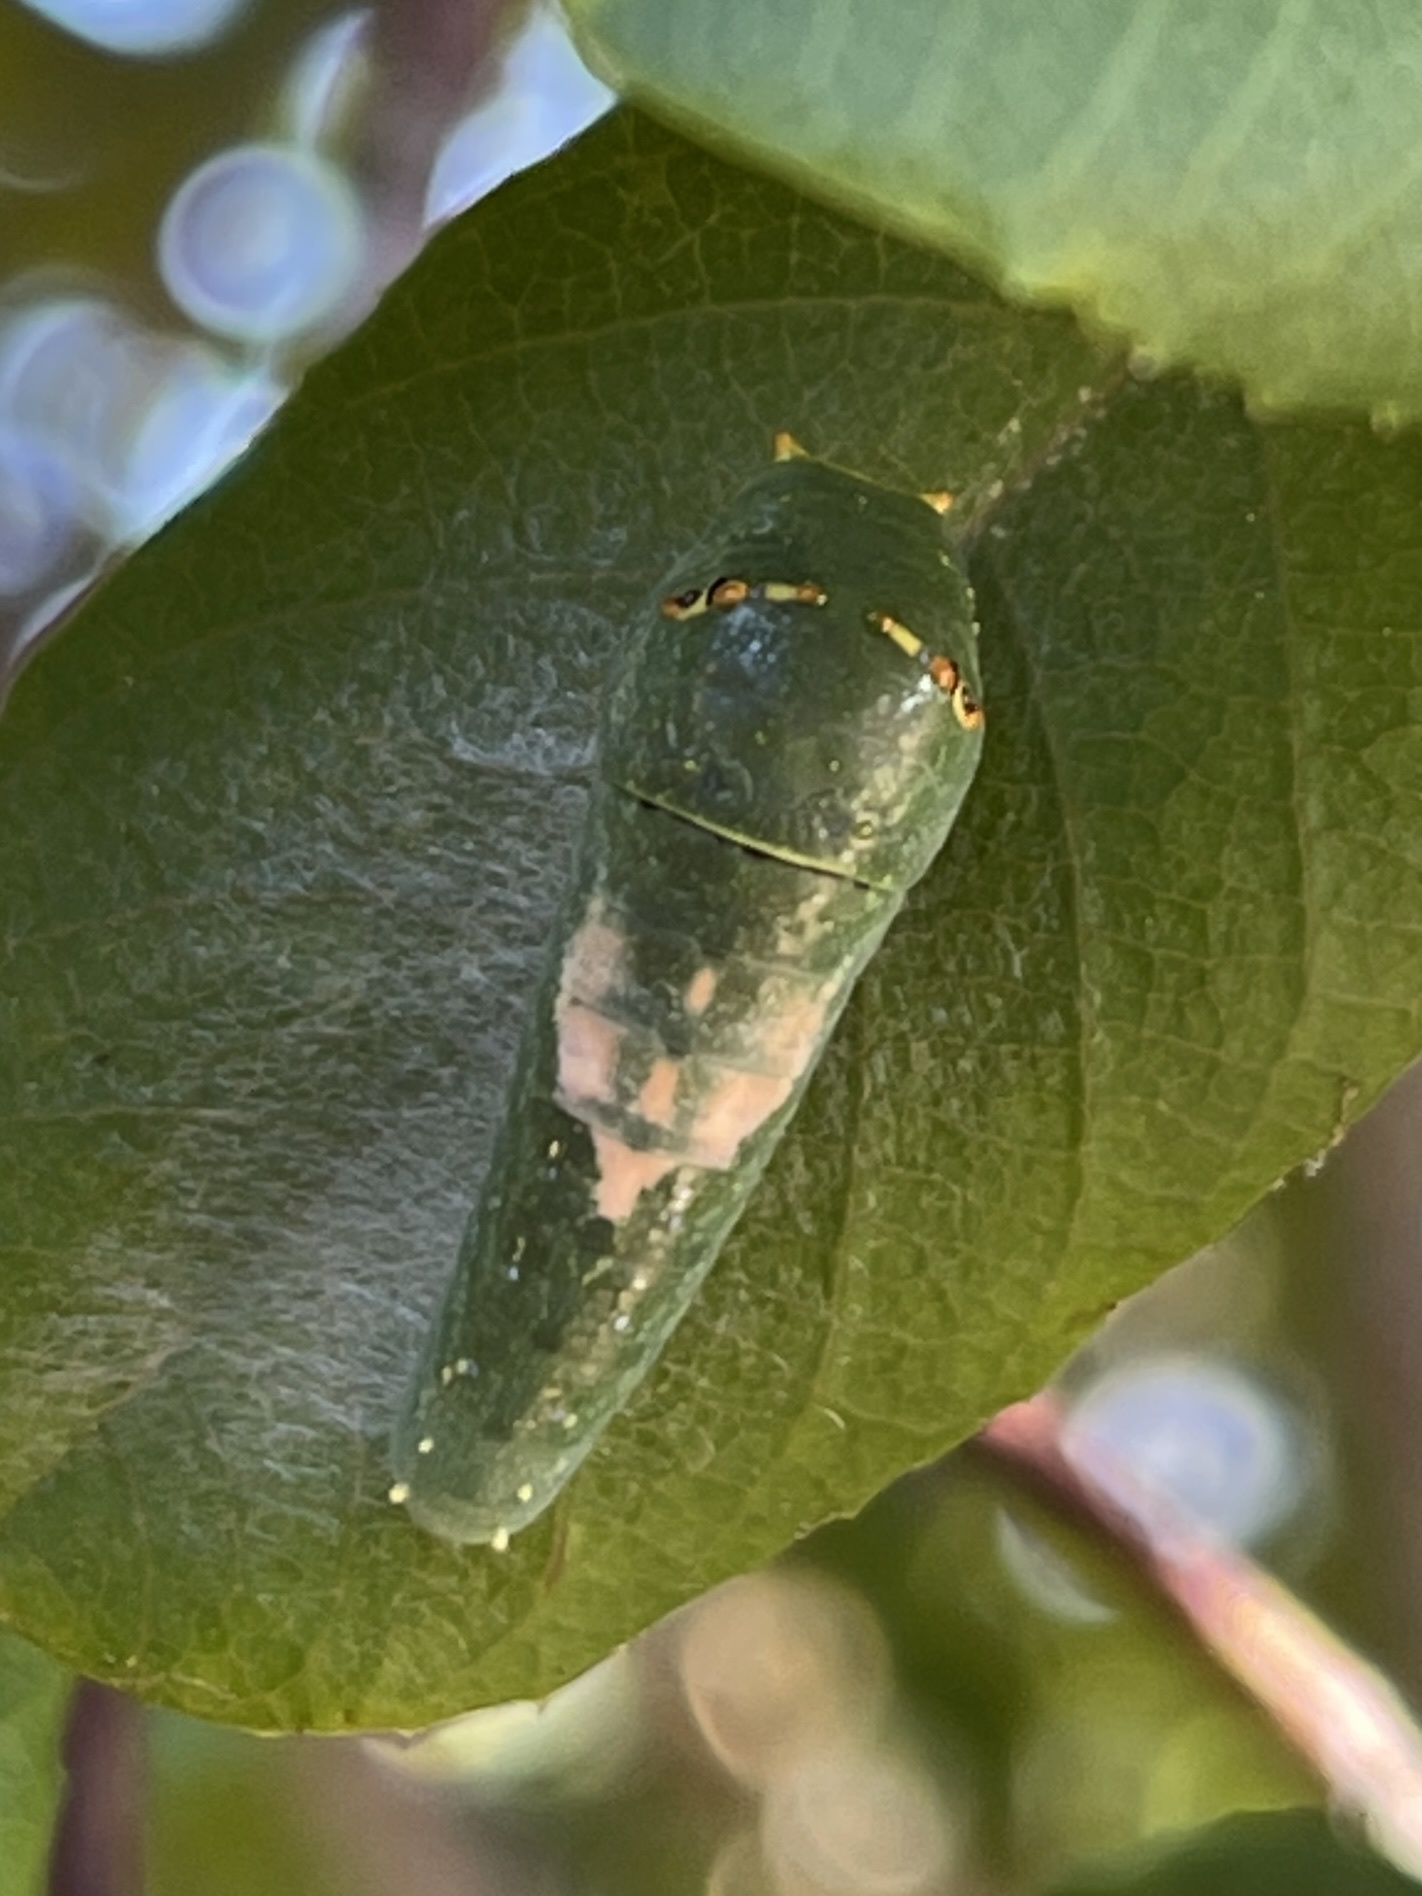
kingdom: Animalia
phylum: Arthropoda
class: Insecta
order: Lepidoptera
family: Papilionidae
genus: Papilio
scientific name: Papilio eurymedon
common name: Pale tiger swallowtail
